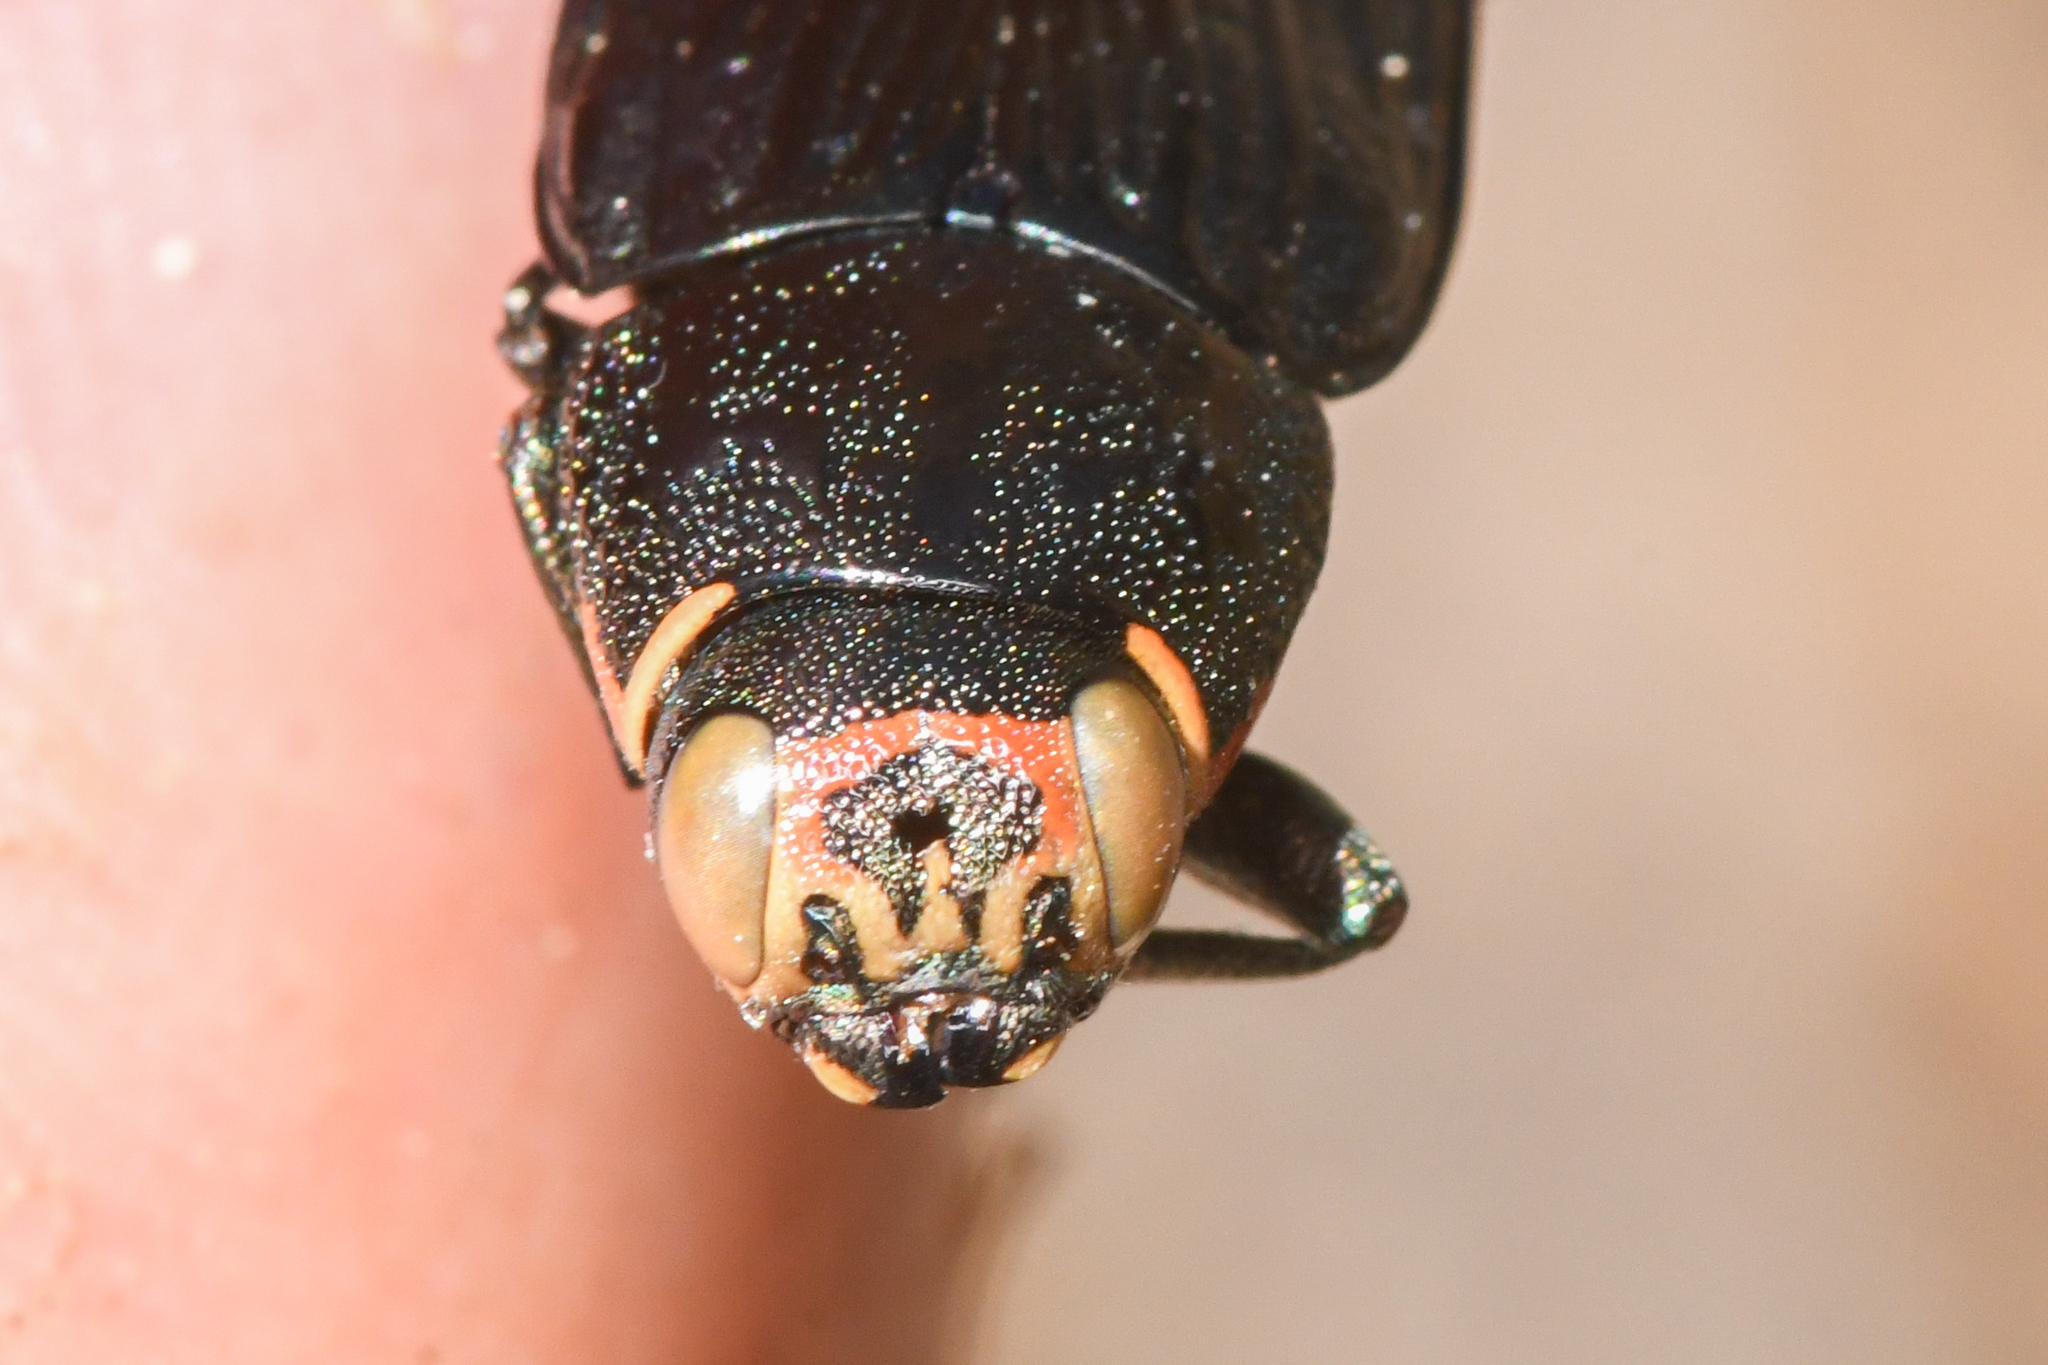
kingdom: Animalia
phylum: Arthropoda
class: Insecta
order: Coleoptera
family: Buprestidae
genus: Buprestis
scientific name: Buprestis lyrata
